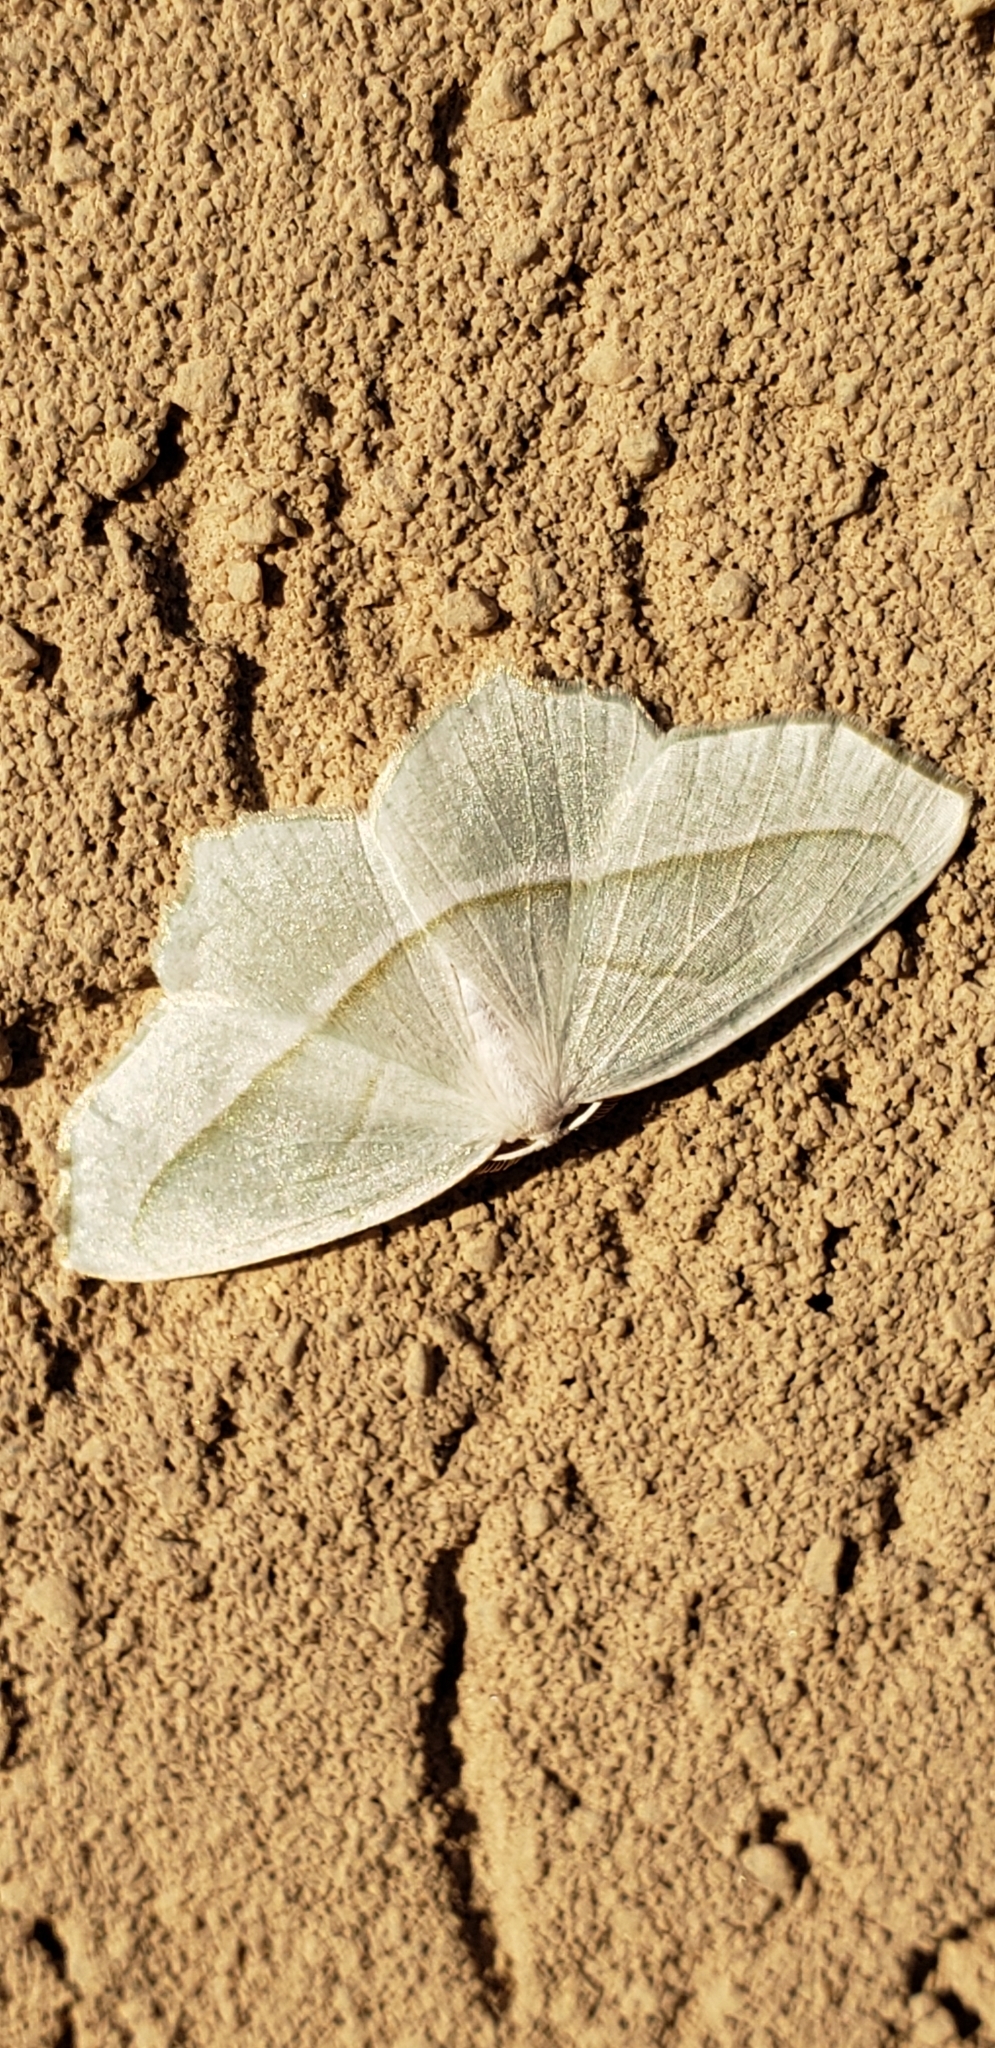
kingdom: Animalia
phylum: Arthropoda
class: Insecta
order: Lepidoptera
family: Geometridae
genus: Campaea
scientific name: Campaea perlata
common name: Fringed looper
